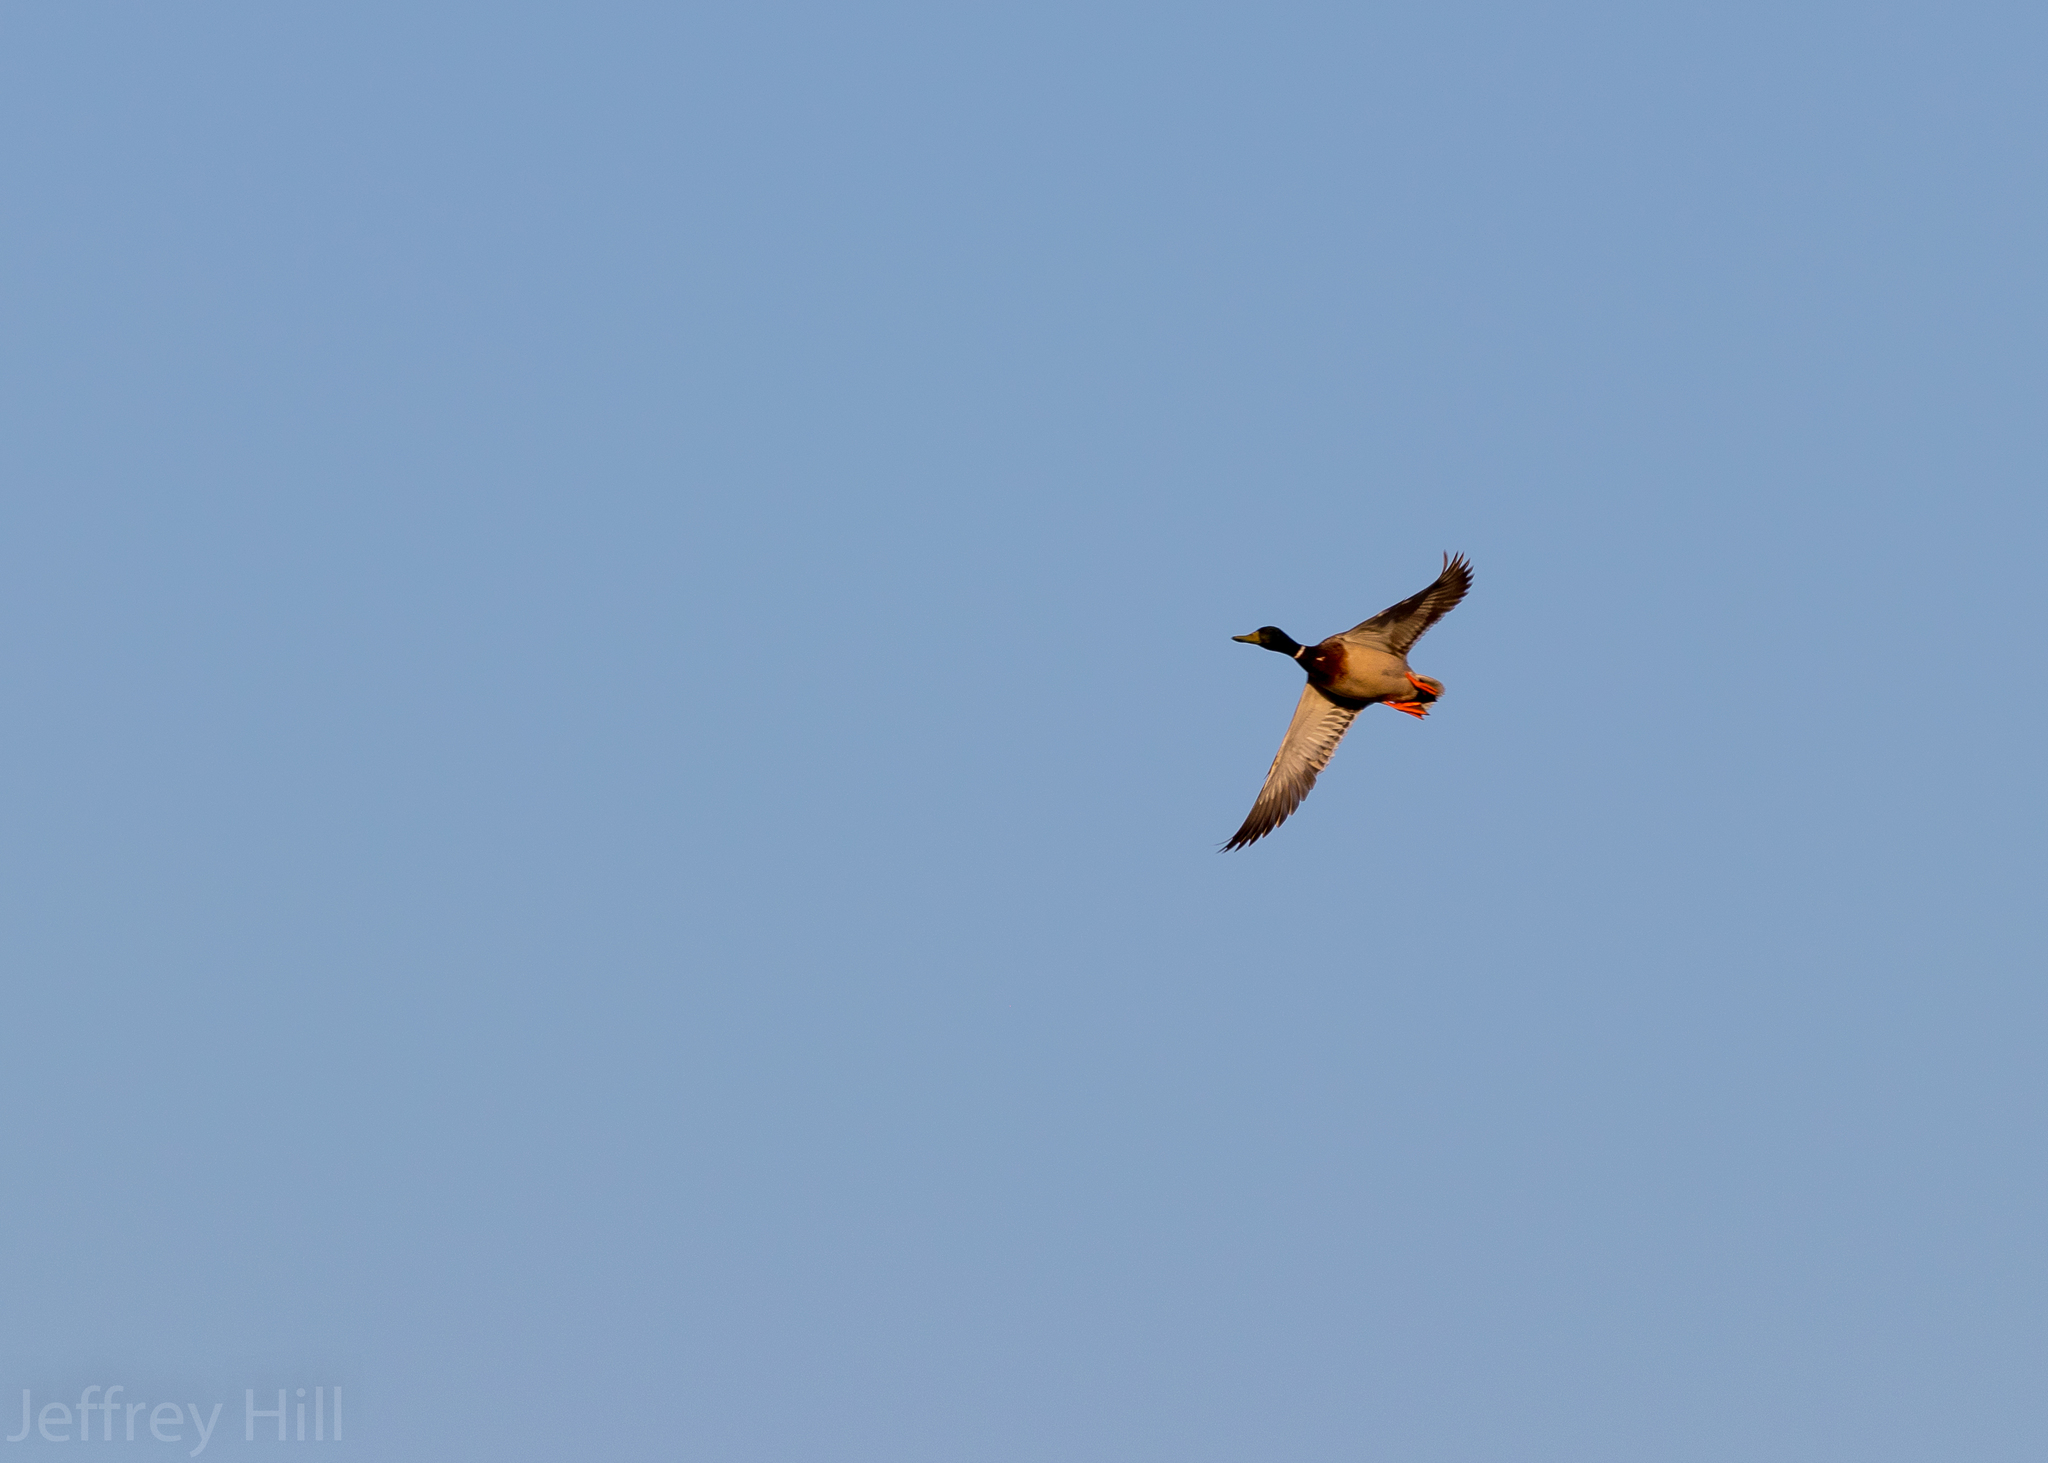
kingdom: Animalia
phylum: Chordata
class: Aves
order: Anseriformes
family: Anatidae
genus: Anas
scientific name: Anas platyrhynchos
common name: Mallard
